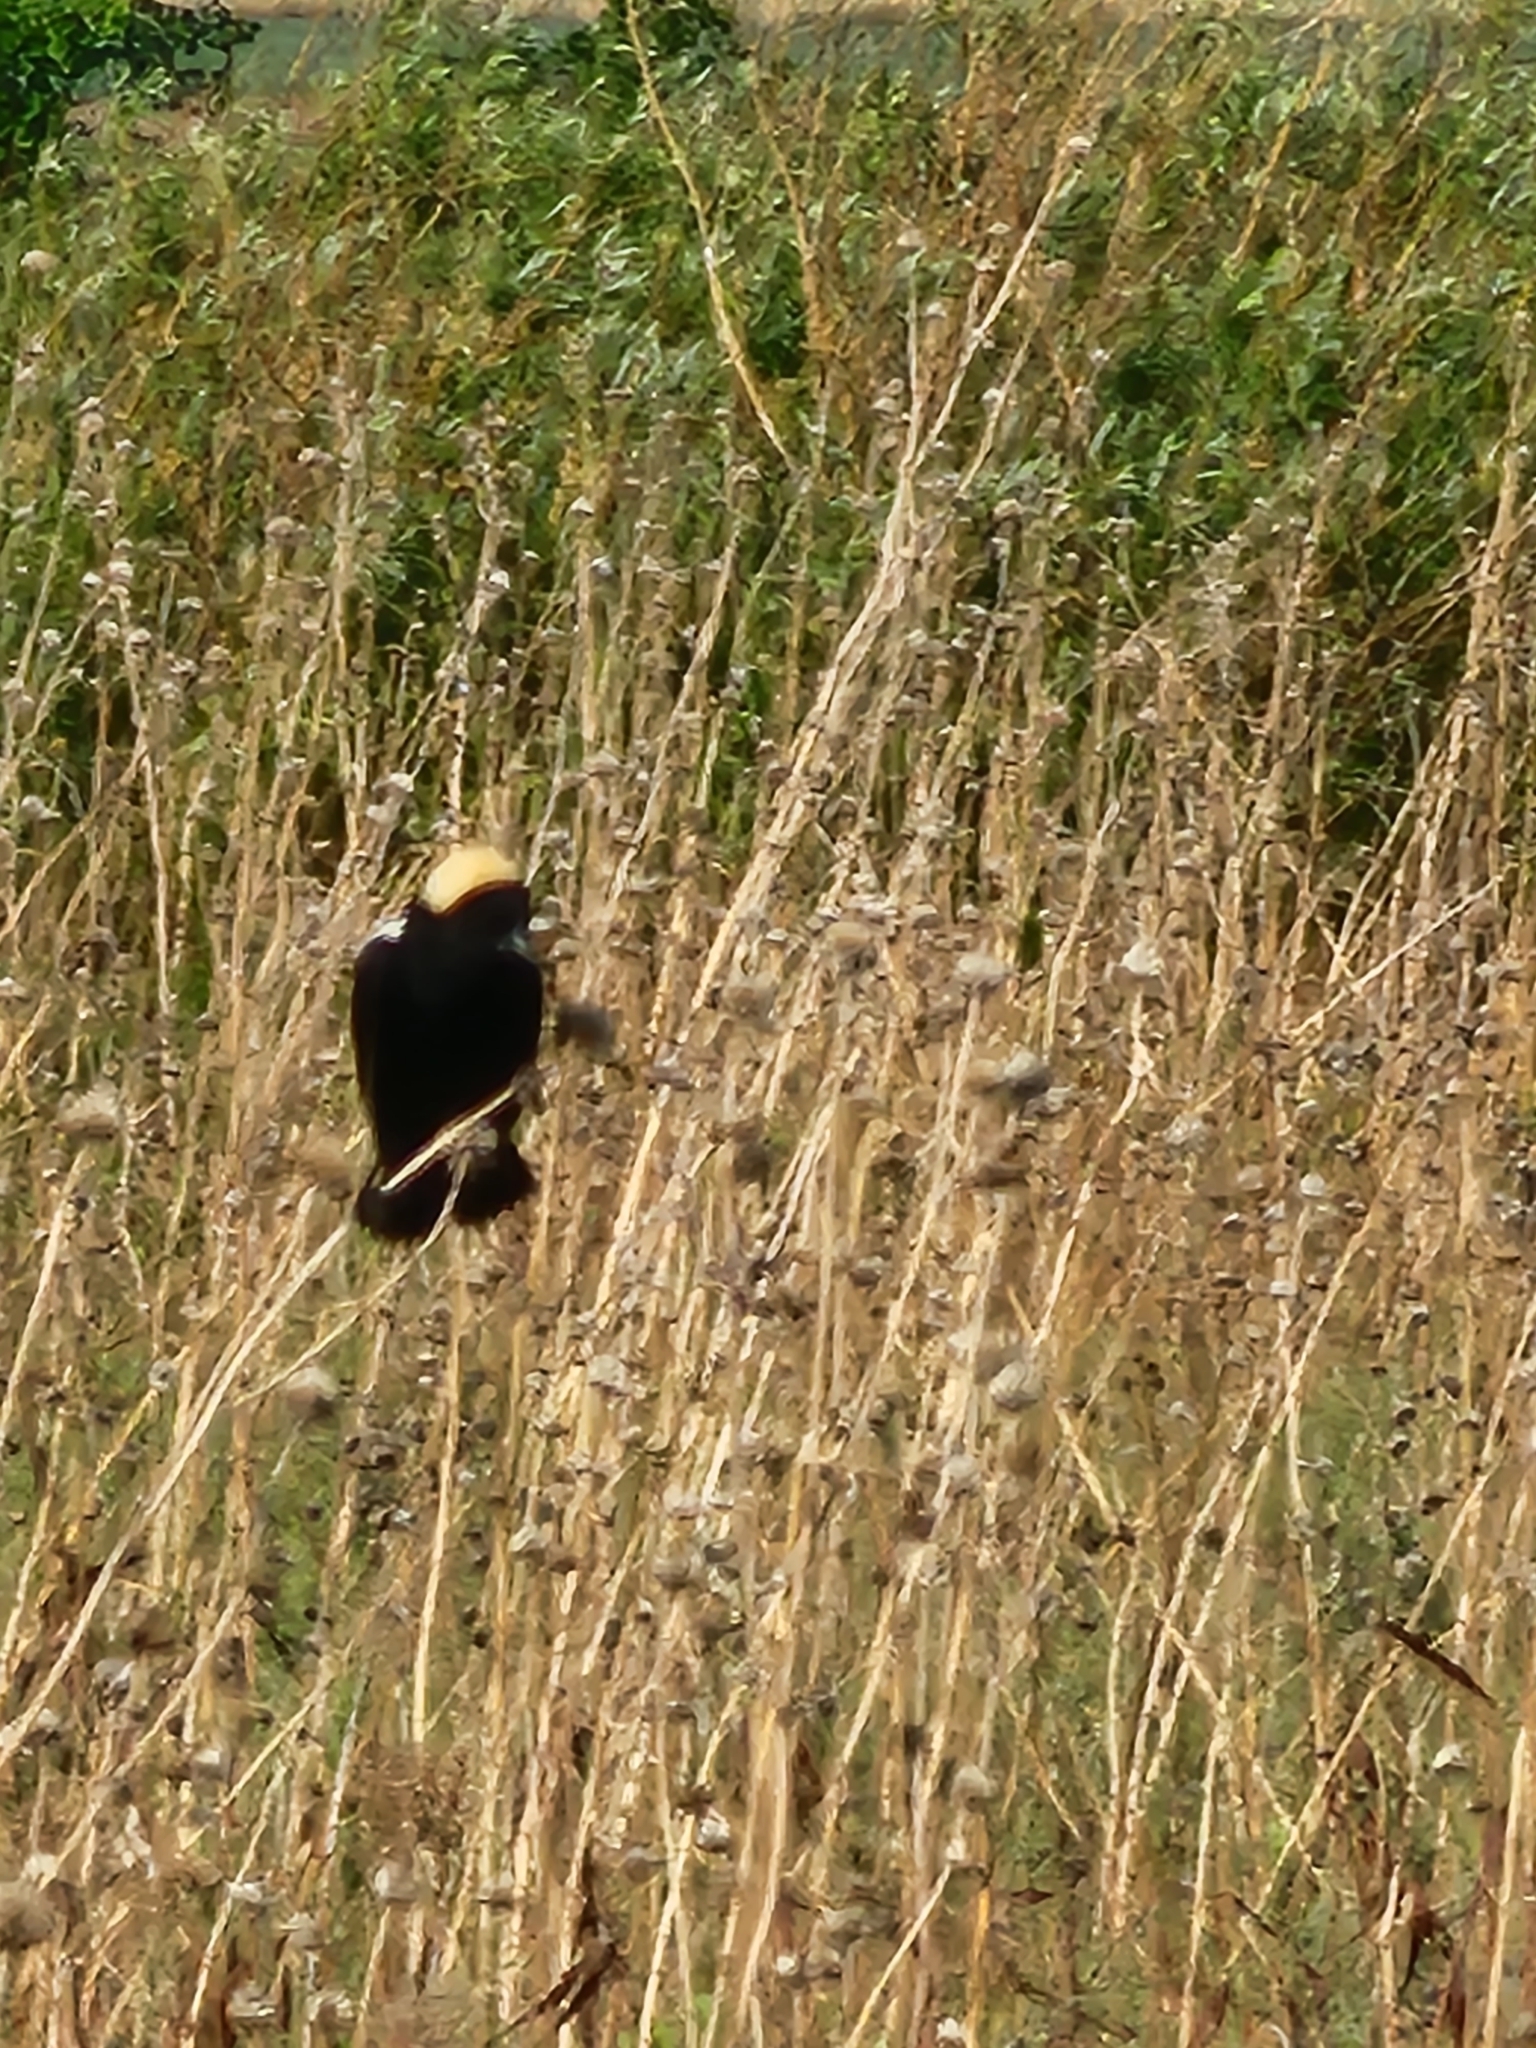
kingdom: Animalia
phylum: Chordata
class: Aves
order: Passeriformes
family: Icteridae
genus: Dolichonyx
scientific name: Dolichonyx oryzivorus
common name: Bobolink
